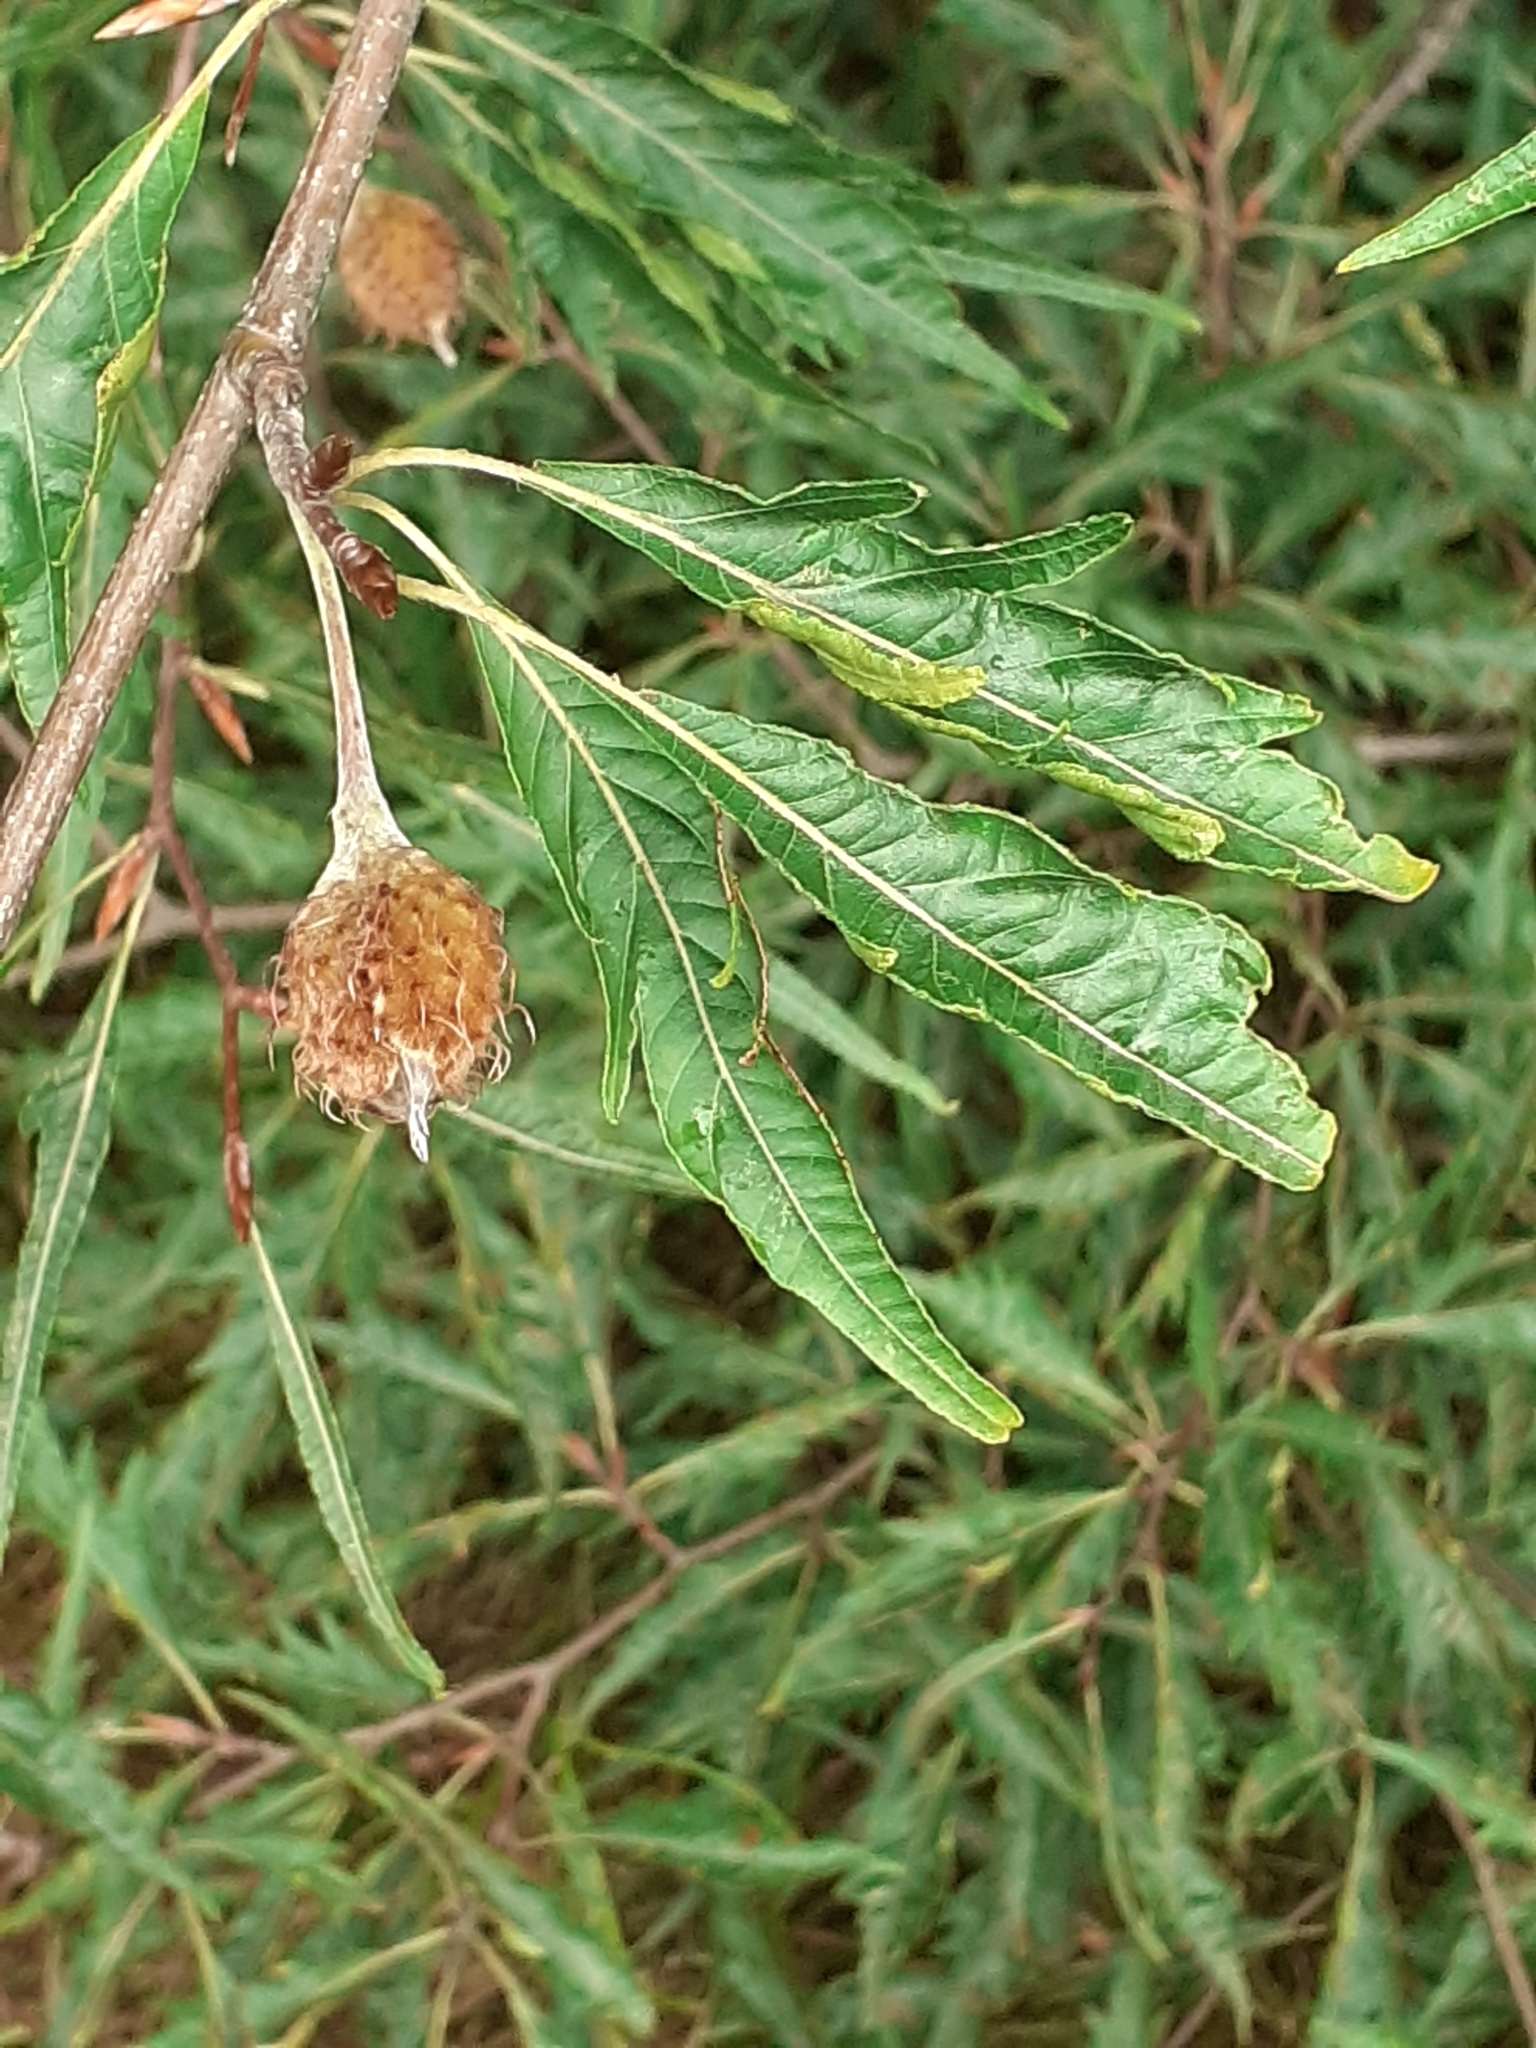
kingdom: Plantae
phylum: Tracheophyta
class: Magnoliopsida
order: Fagales
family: Fagaceae
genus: Fagus
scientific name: Fagus sylvatica
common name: Beech
